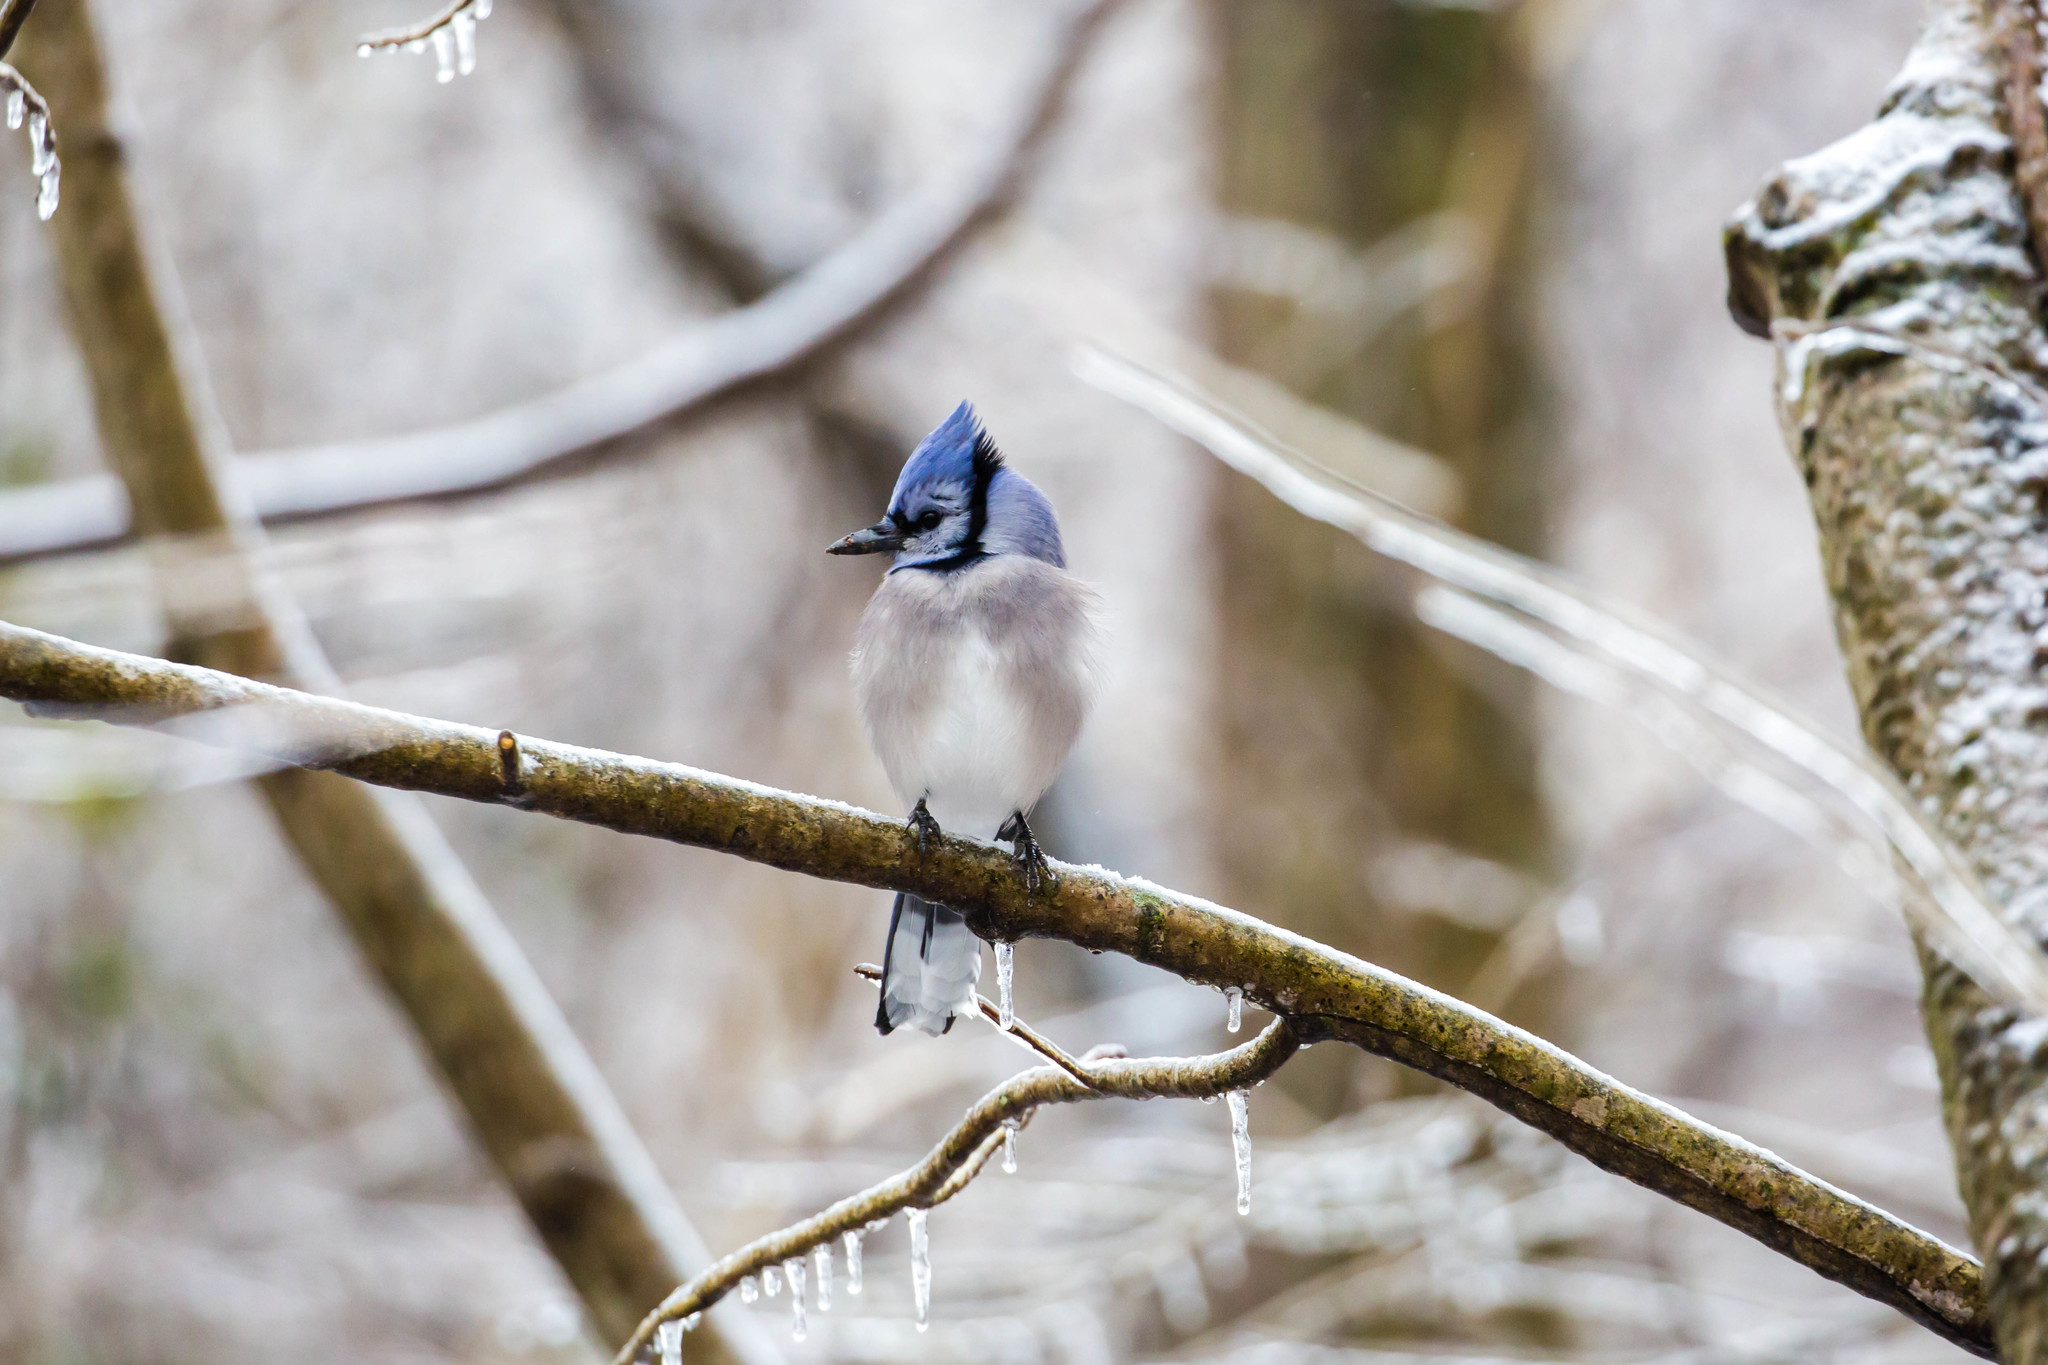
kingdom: Animalia
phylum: Chordata
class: Aves
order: Passeriformes
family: Corvidae
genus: Cyanocitta
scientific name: Cyanocitta cristata
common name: Blue jay
